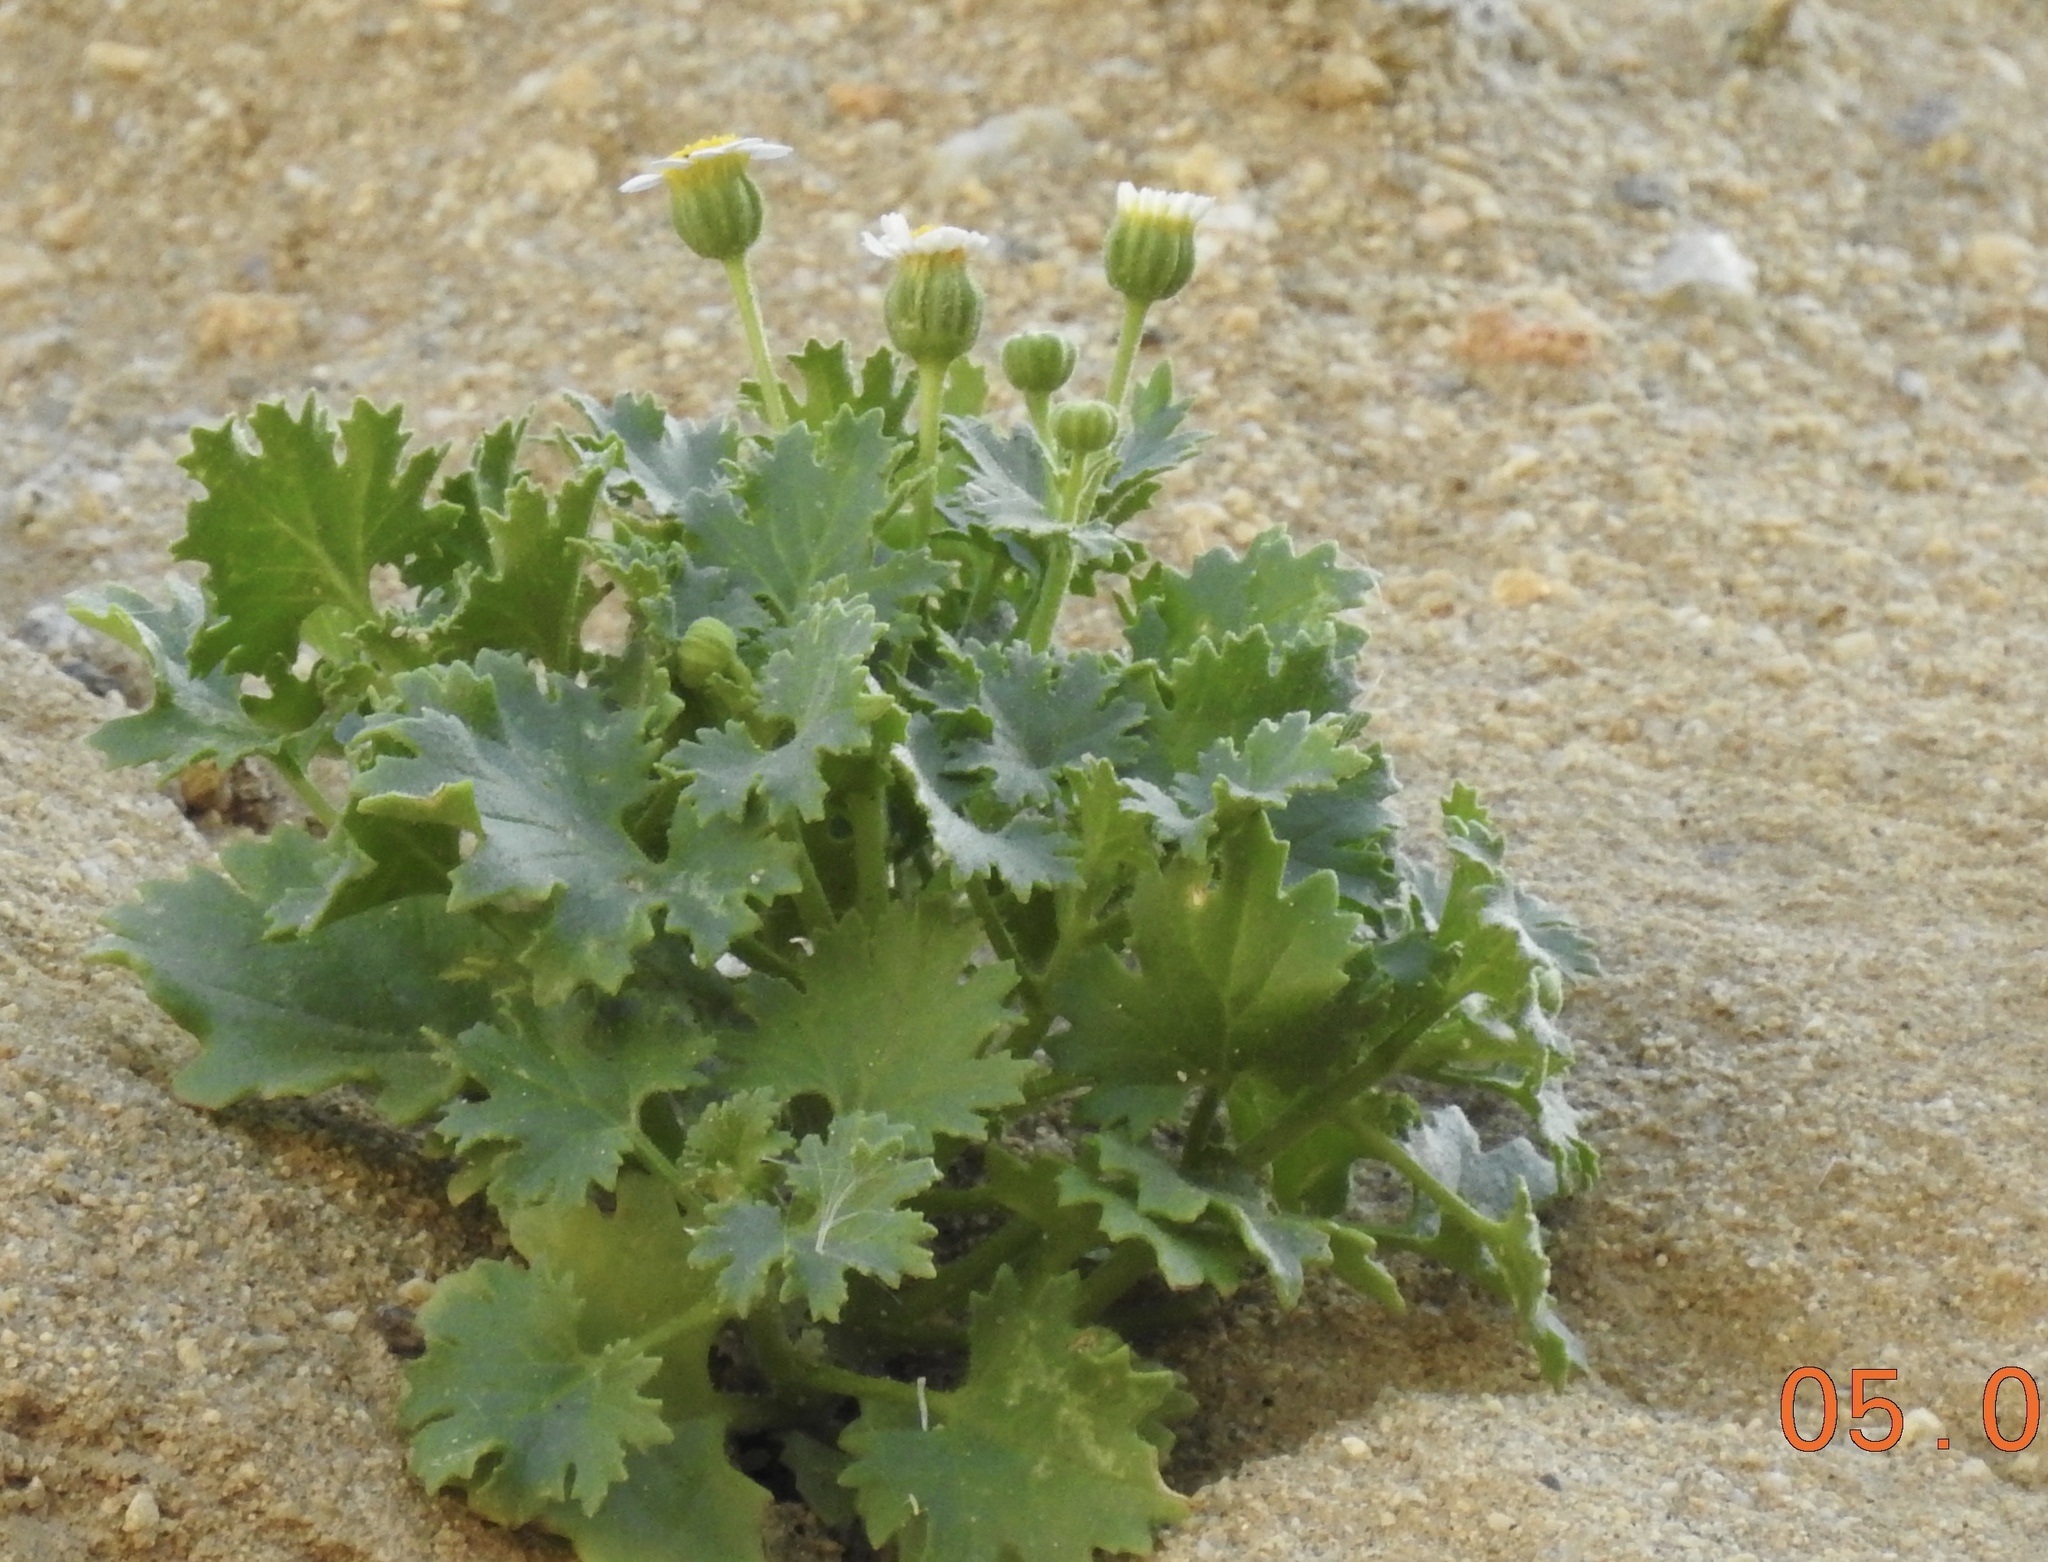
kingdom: Plantae
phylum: Tracheophyta
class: Magnoliopsida
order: Asterales
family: Asteraceae
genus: Laphamia
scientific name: Laphamia emoryi
